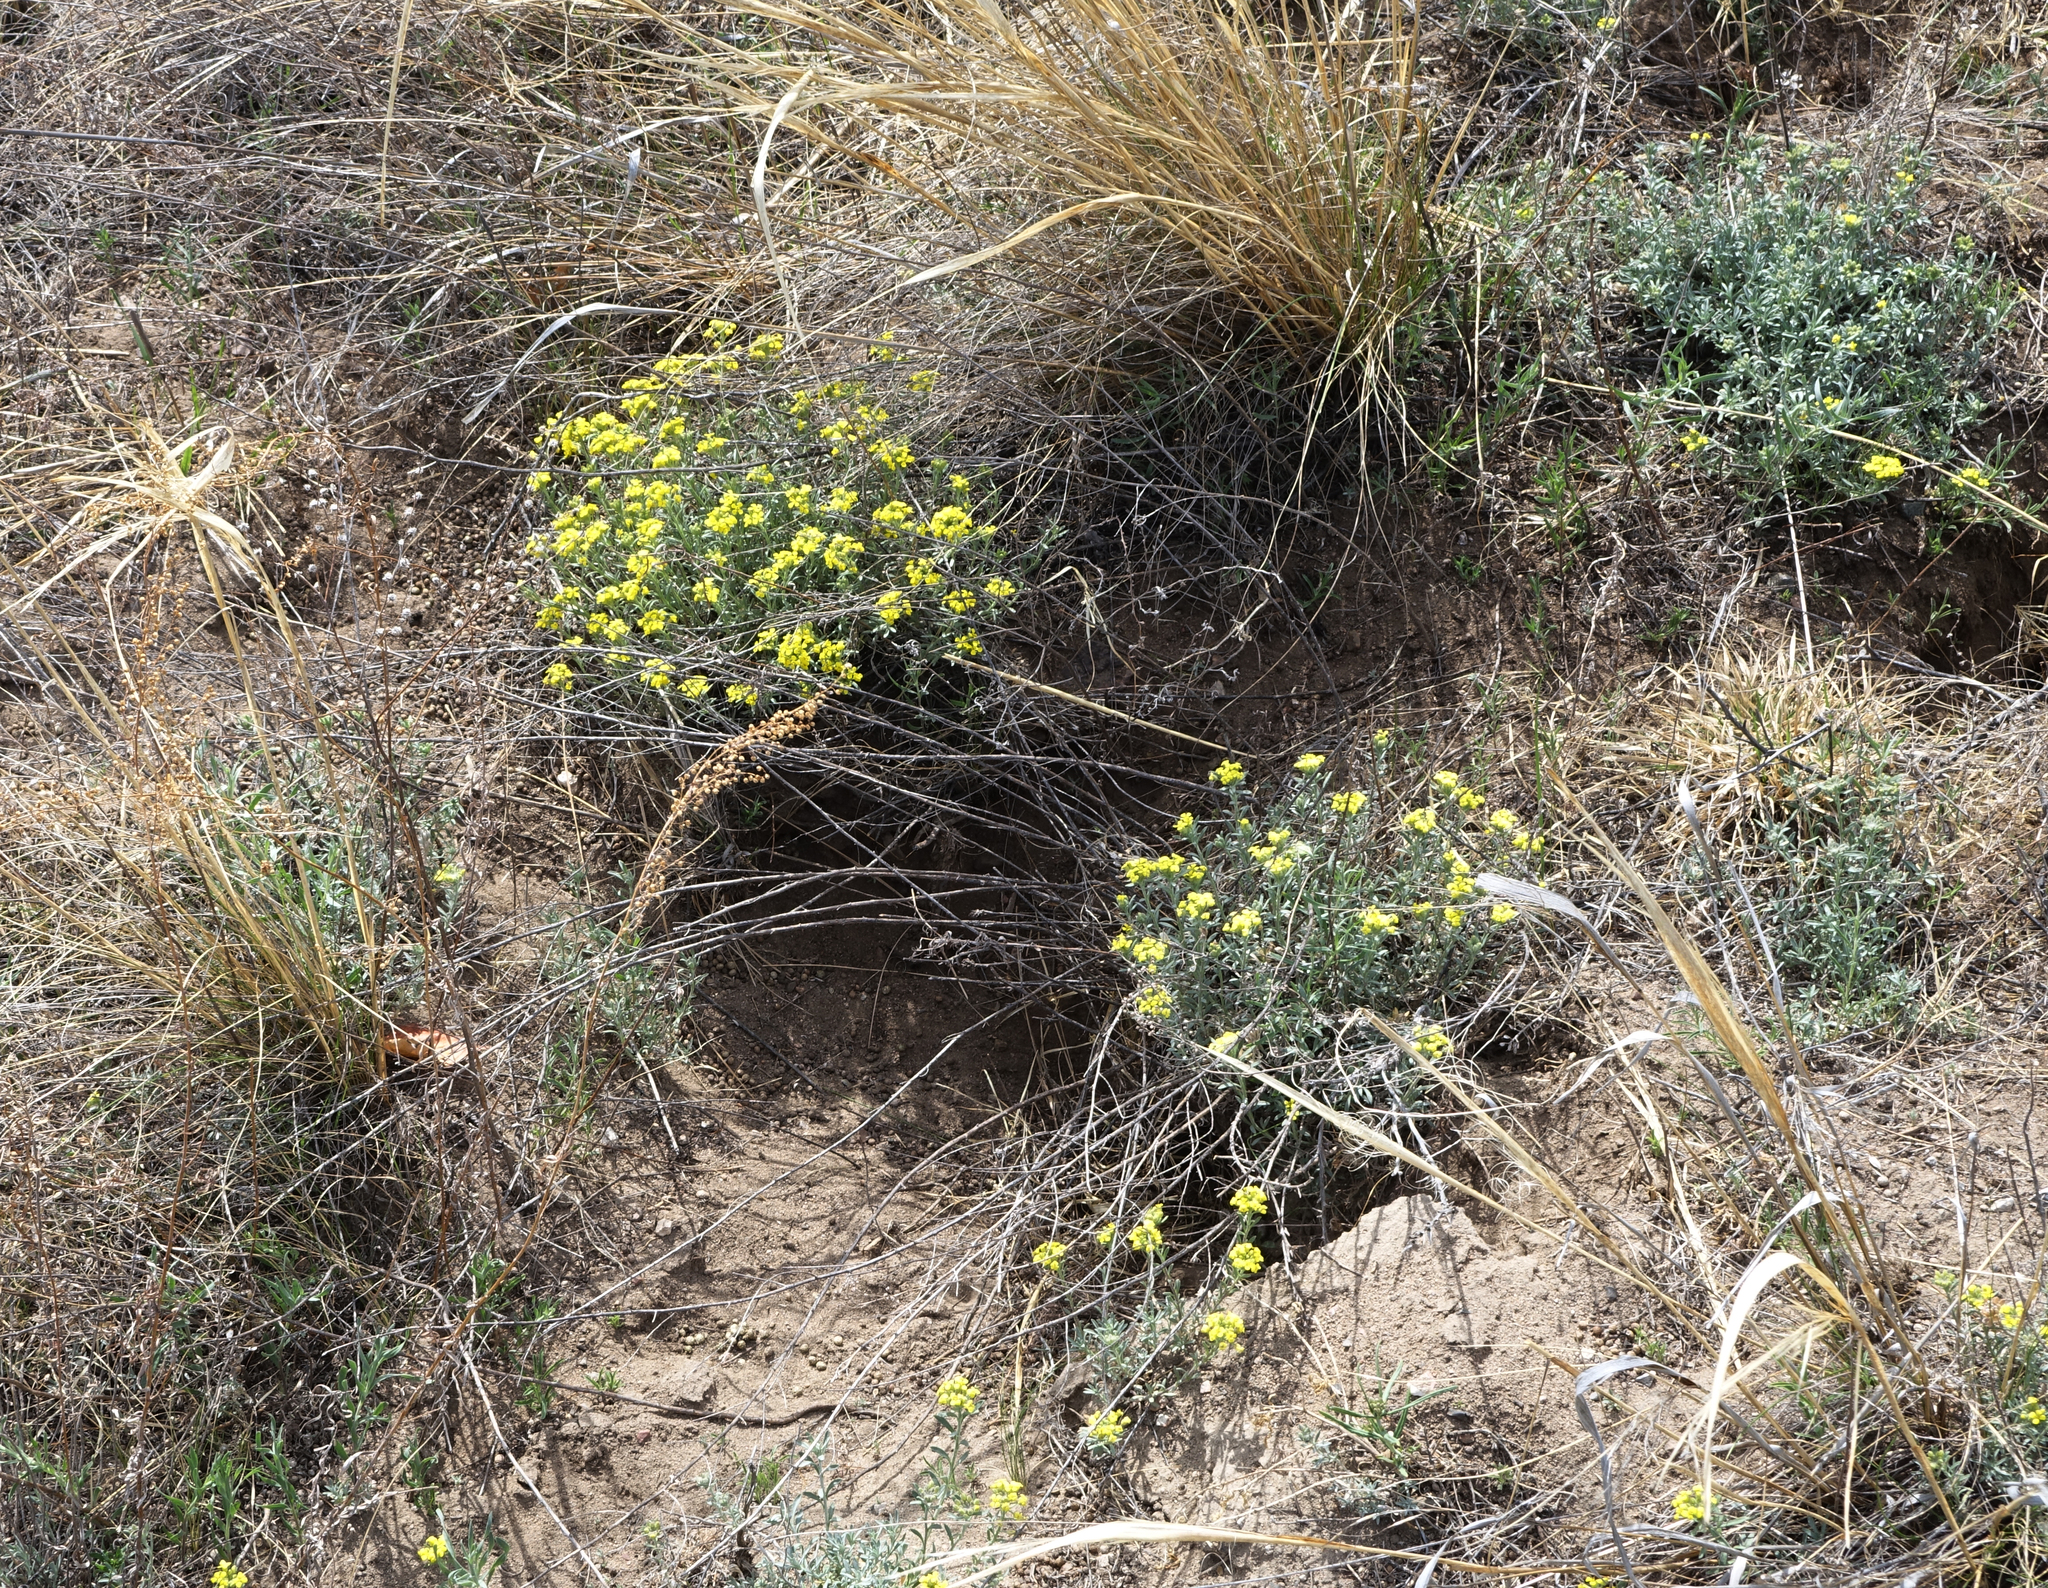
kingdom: Plantae
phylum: Tracheophyta
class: Magnoliopsida
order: Brassicales
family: Brassicaceae
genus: Alyssum
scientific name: Alyssum lenense
